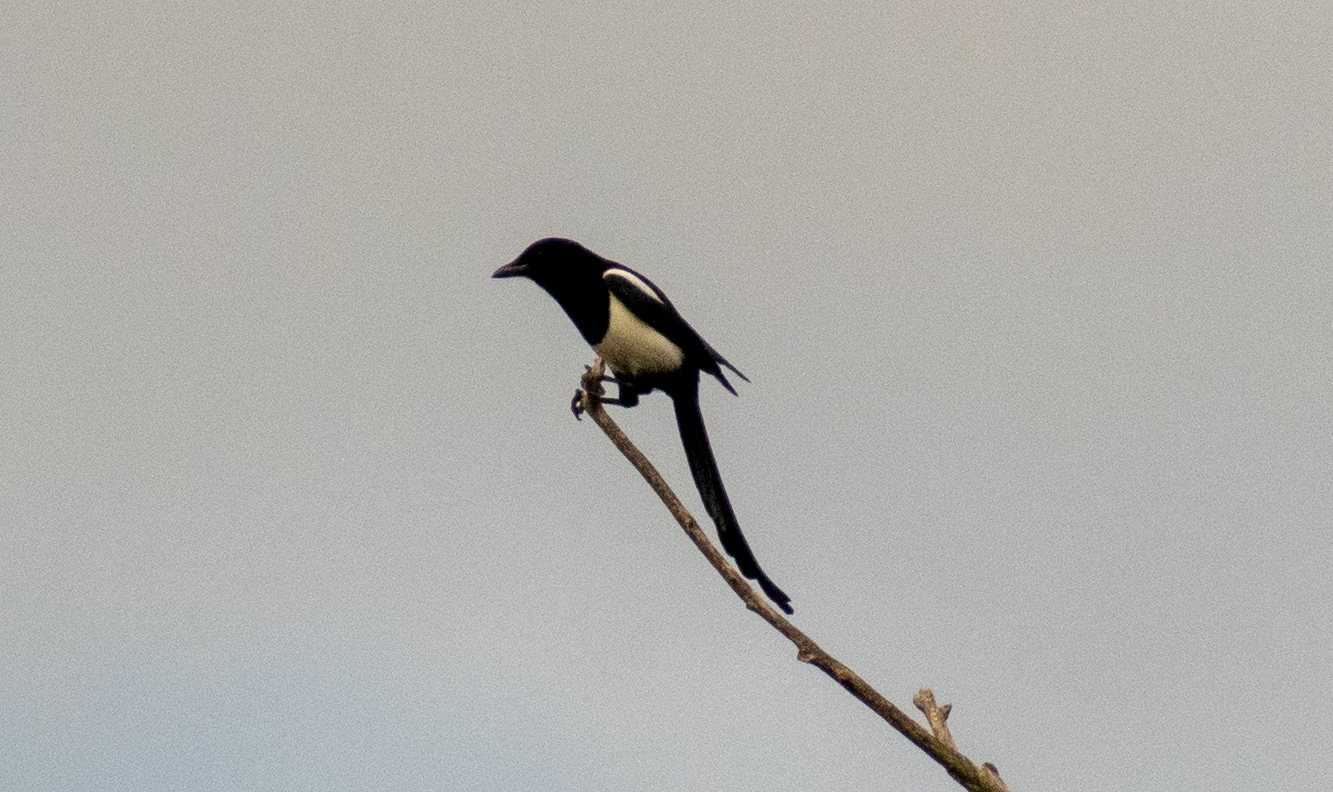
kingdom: Animalia
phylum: Chordata
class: Aves
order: Passeriformes
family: Corvidae
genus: Pica
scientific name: Pica pica
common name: Eurasian magpie
